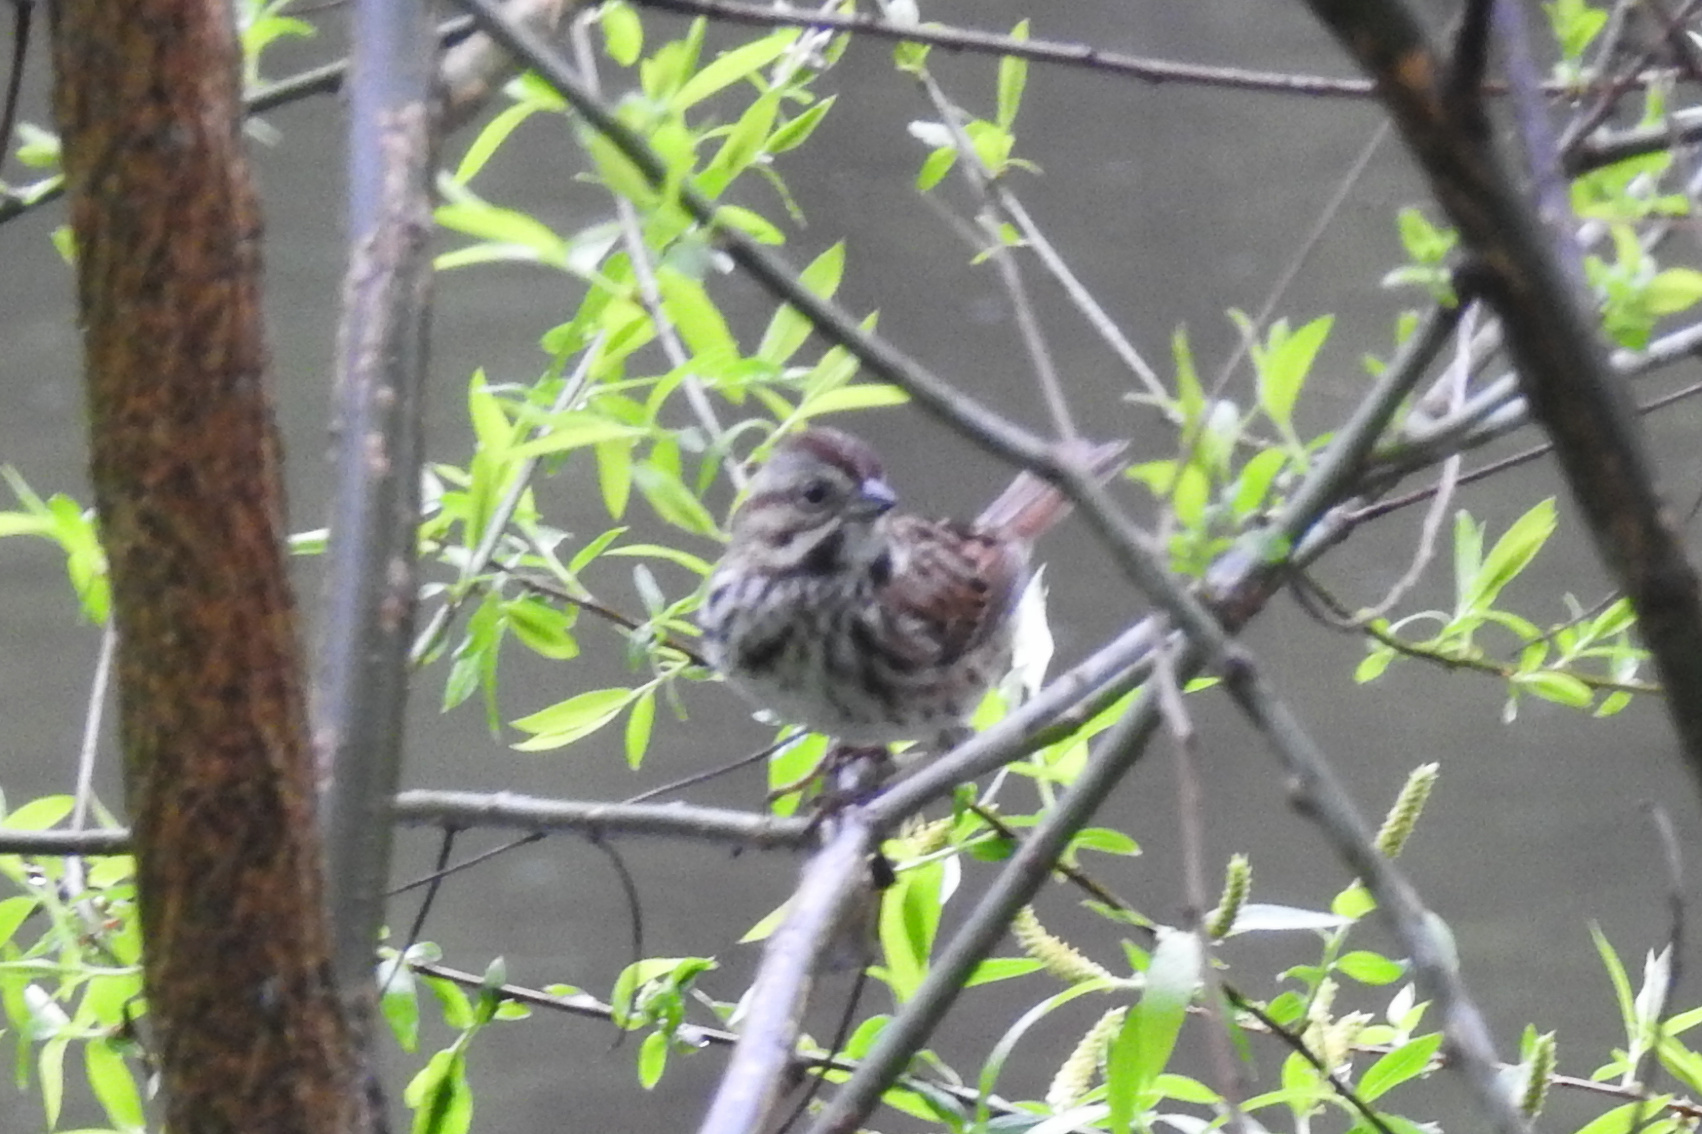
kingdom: Animalia
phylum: Chordata
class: Aves
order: Passeriformes
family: Passerellidae
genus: Melospiza
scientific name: Melospiza melodia
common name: Song sparrow
